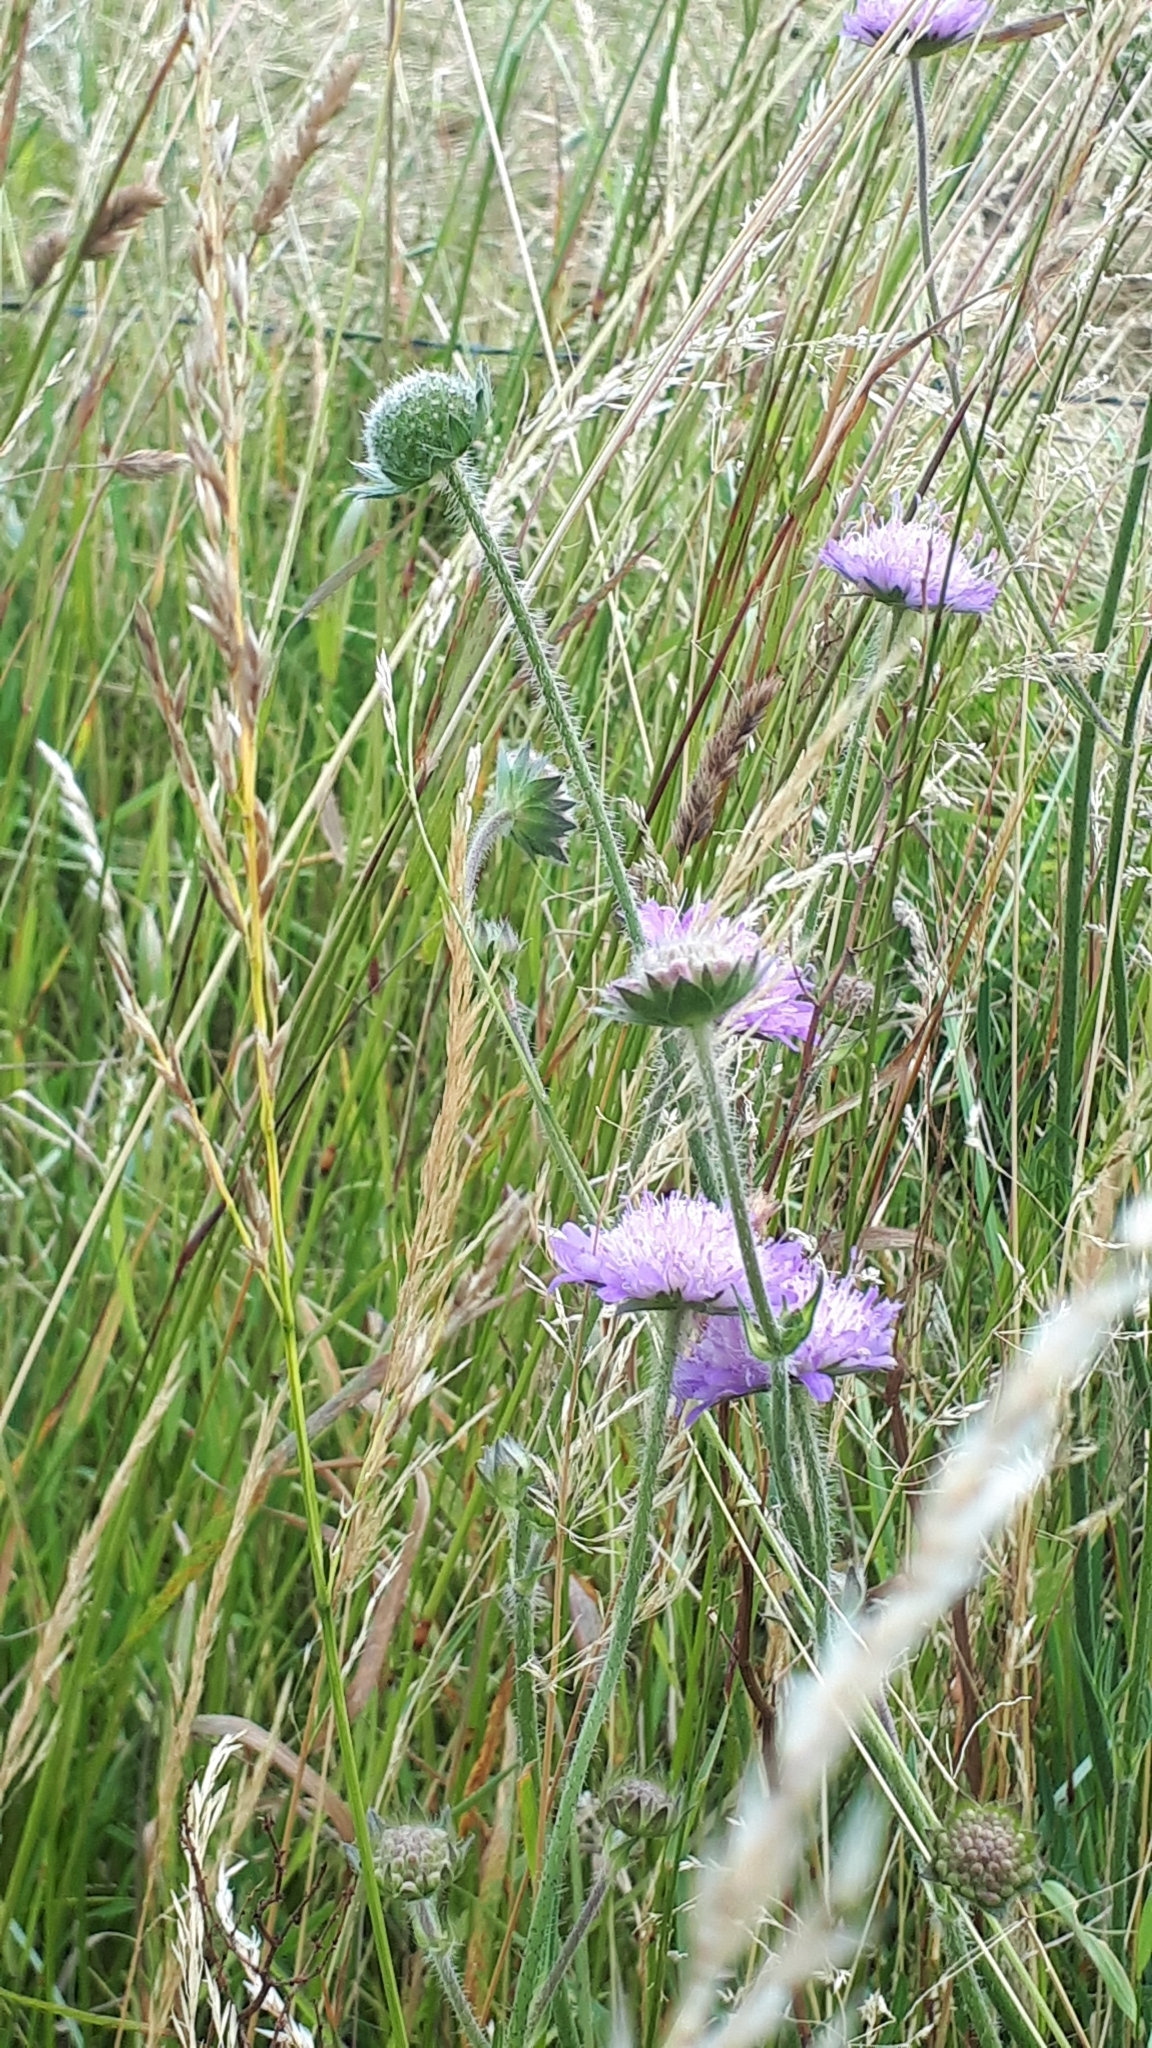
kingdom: Plantae
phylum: Tracheophyta
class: Magnoliopsida
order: Dipsacales
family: Caprifoliaceae
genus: Knautia
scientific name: Knautia arvensis
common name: Field scabiosa
